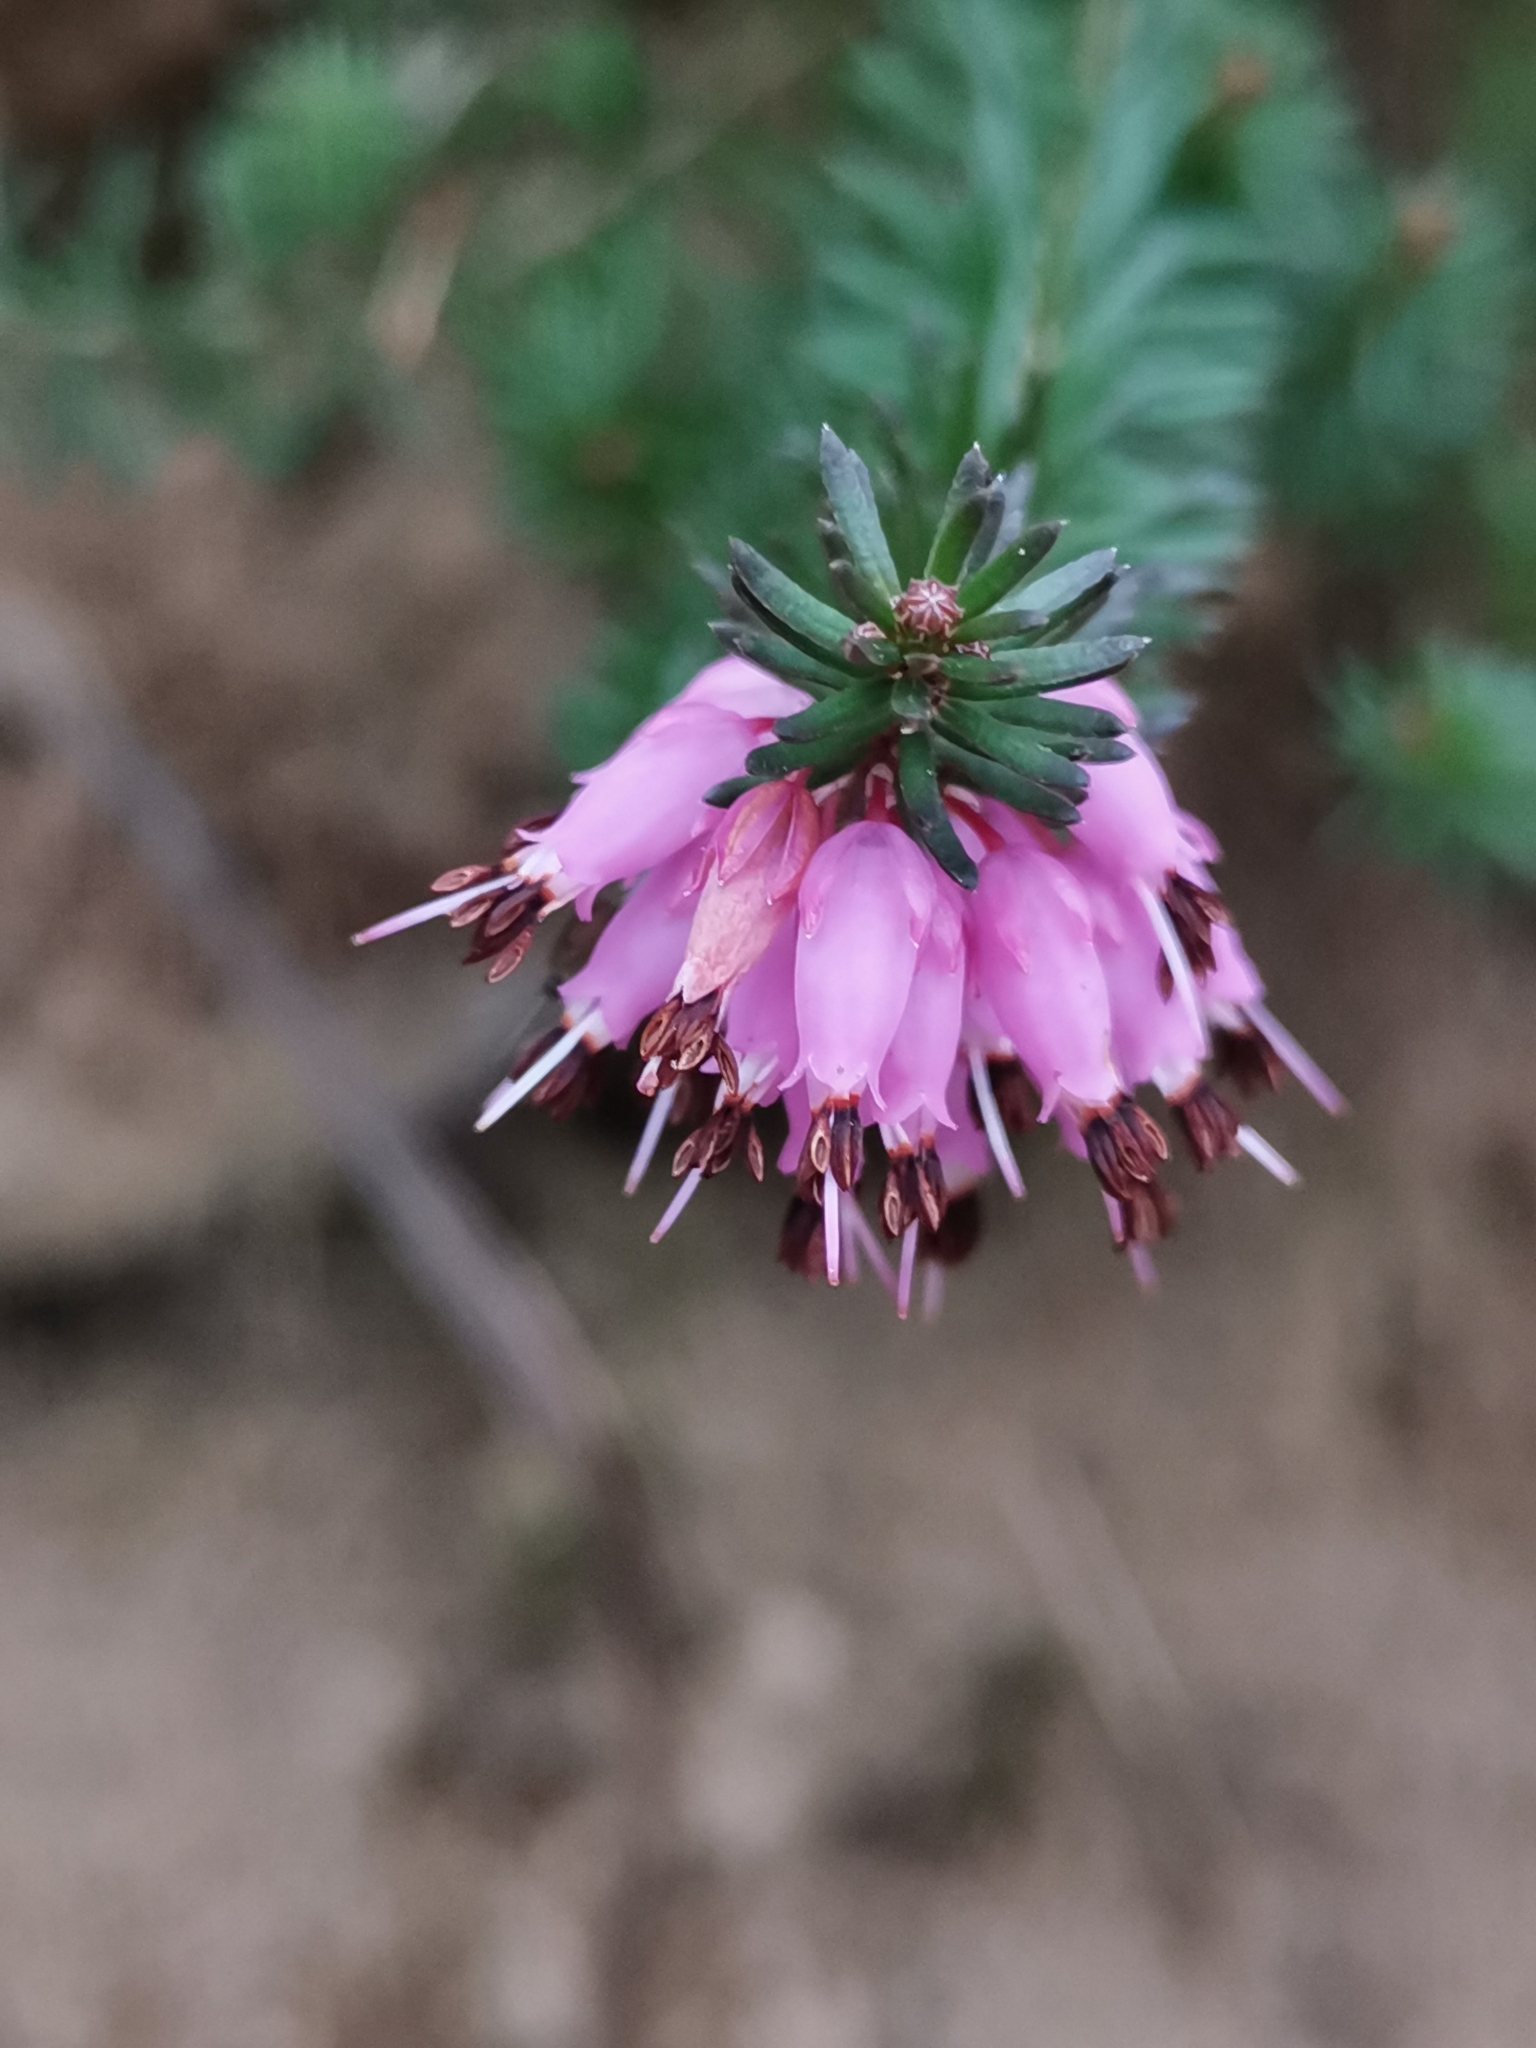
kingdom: Plantae
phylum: Tracheophyta
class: Magnoliopsida
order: Ericales
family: Ericaceae
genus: Erica
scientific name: Erica carnea
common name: Winter heath
